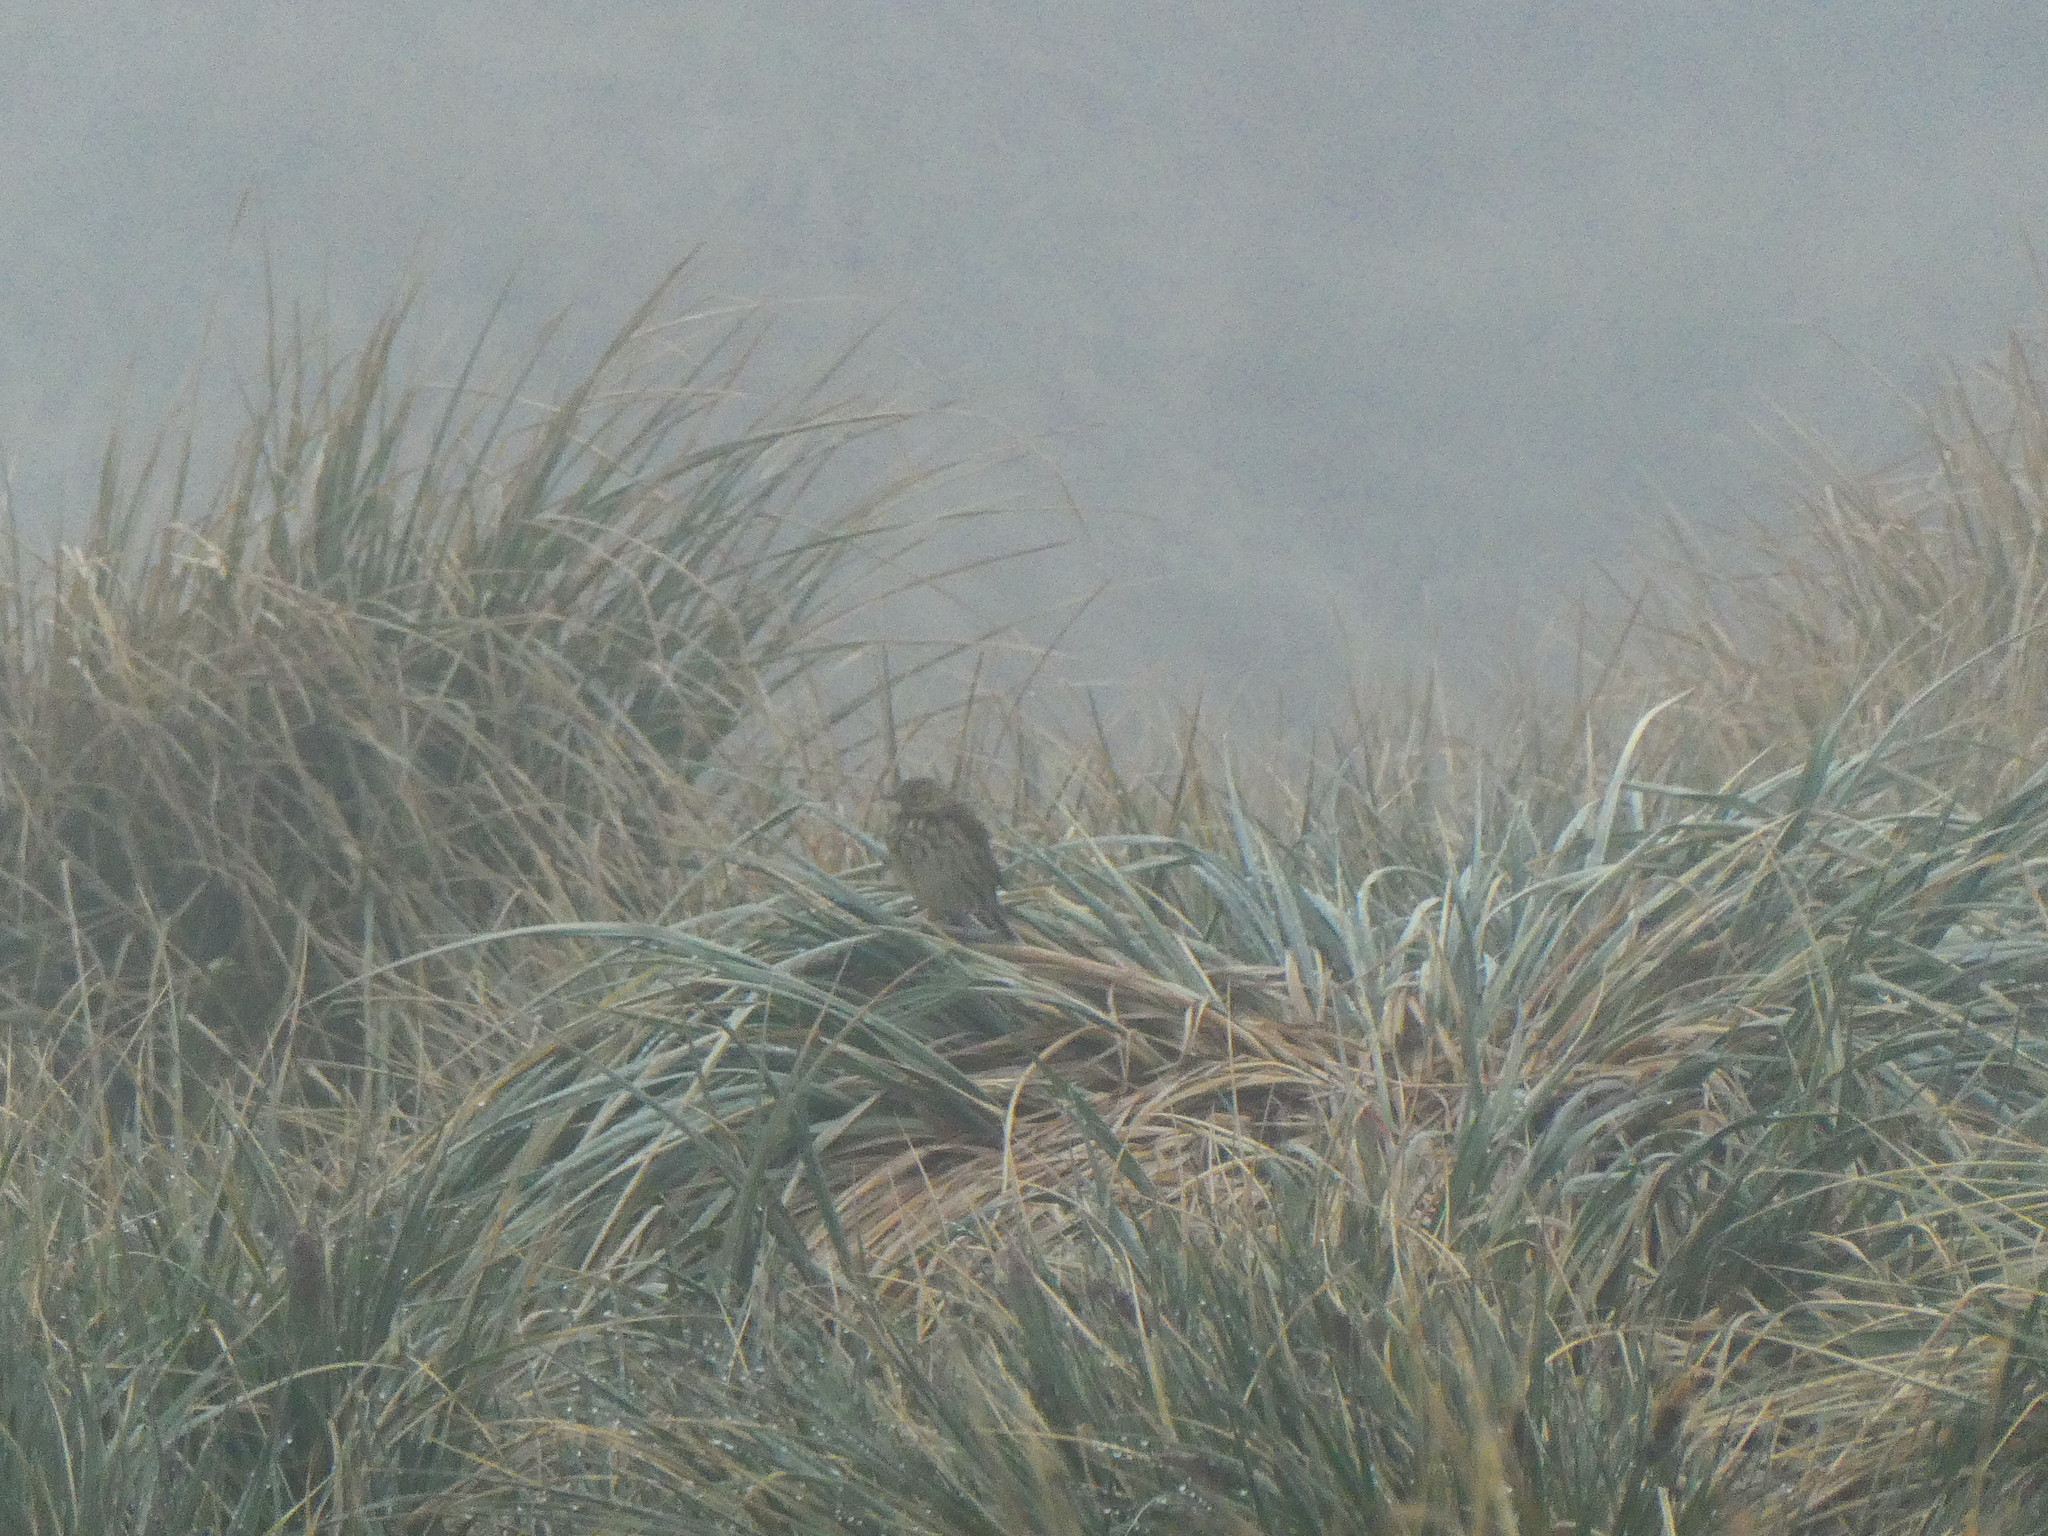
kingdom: Animalia
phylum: Chordata
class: Aves
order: Passeriformes
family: Motacillidae
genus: Anthus
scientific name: Anthus antarcticus
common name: South georgia pipit
